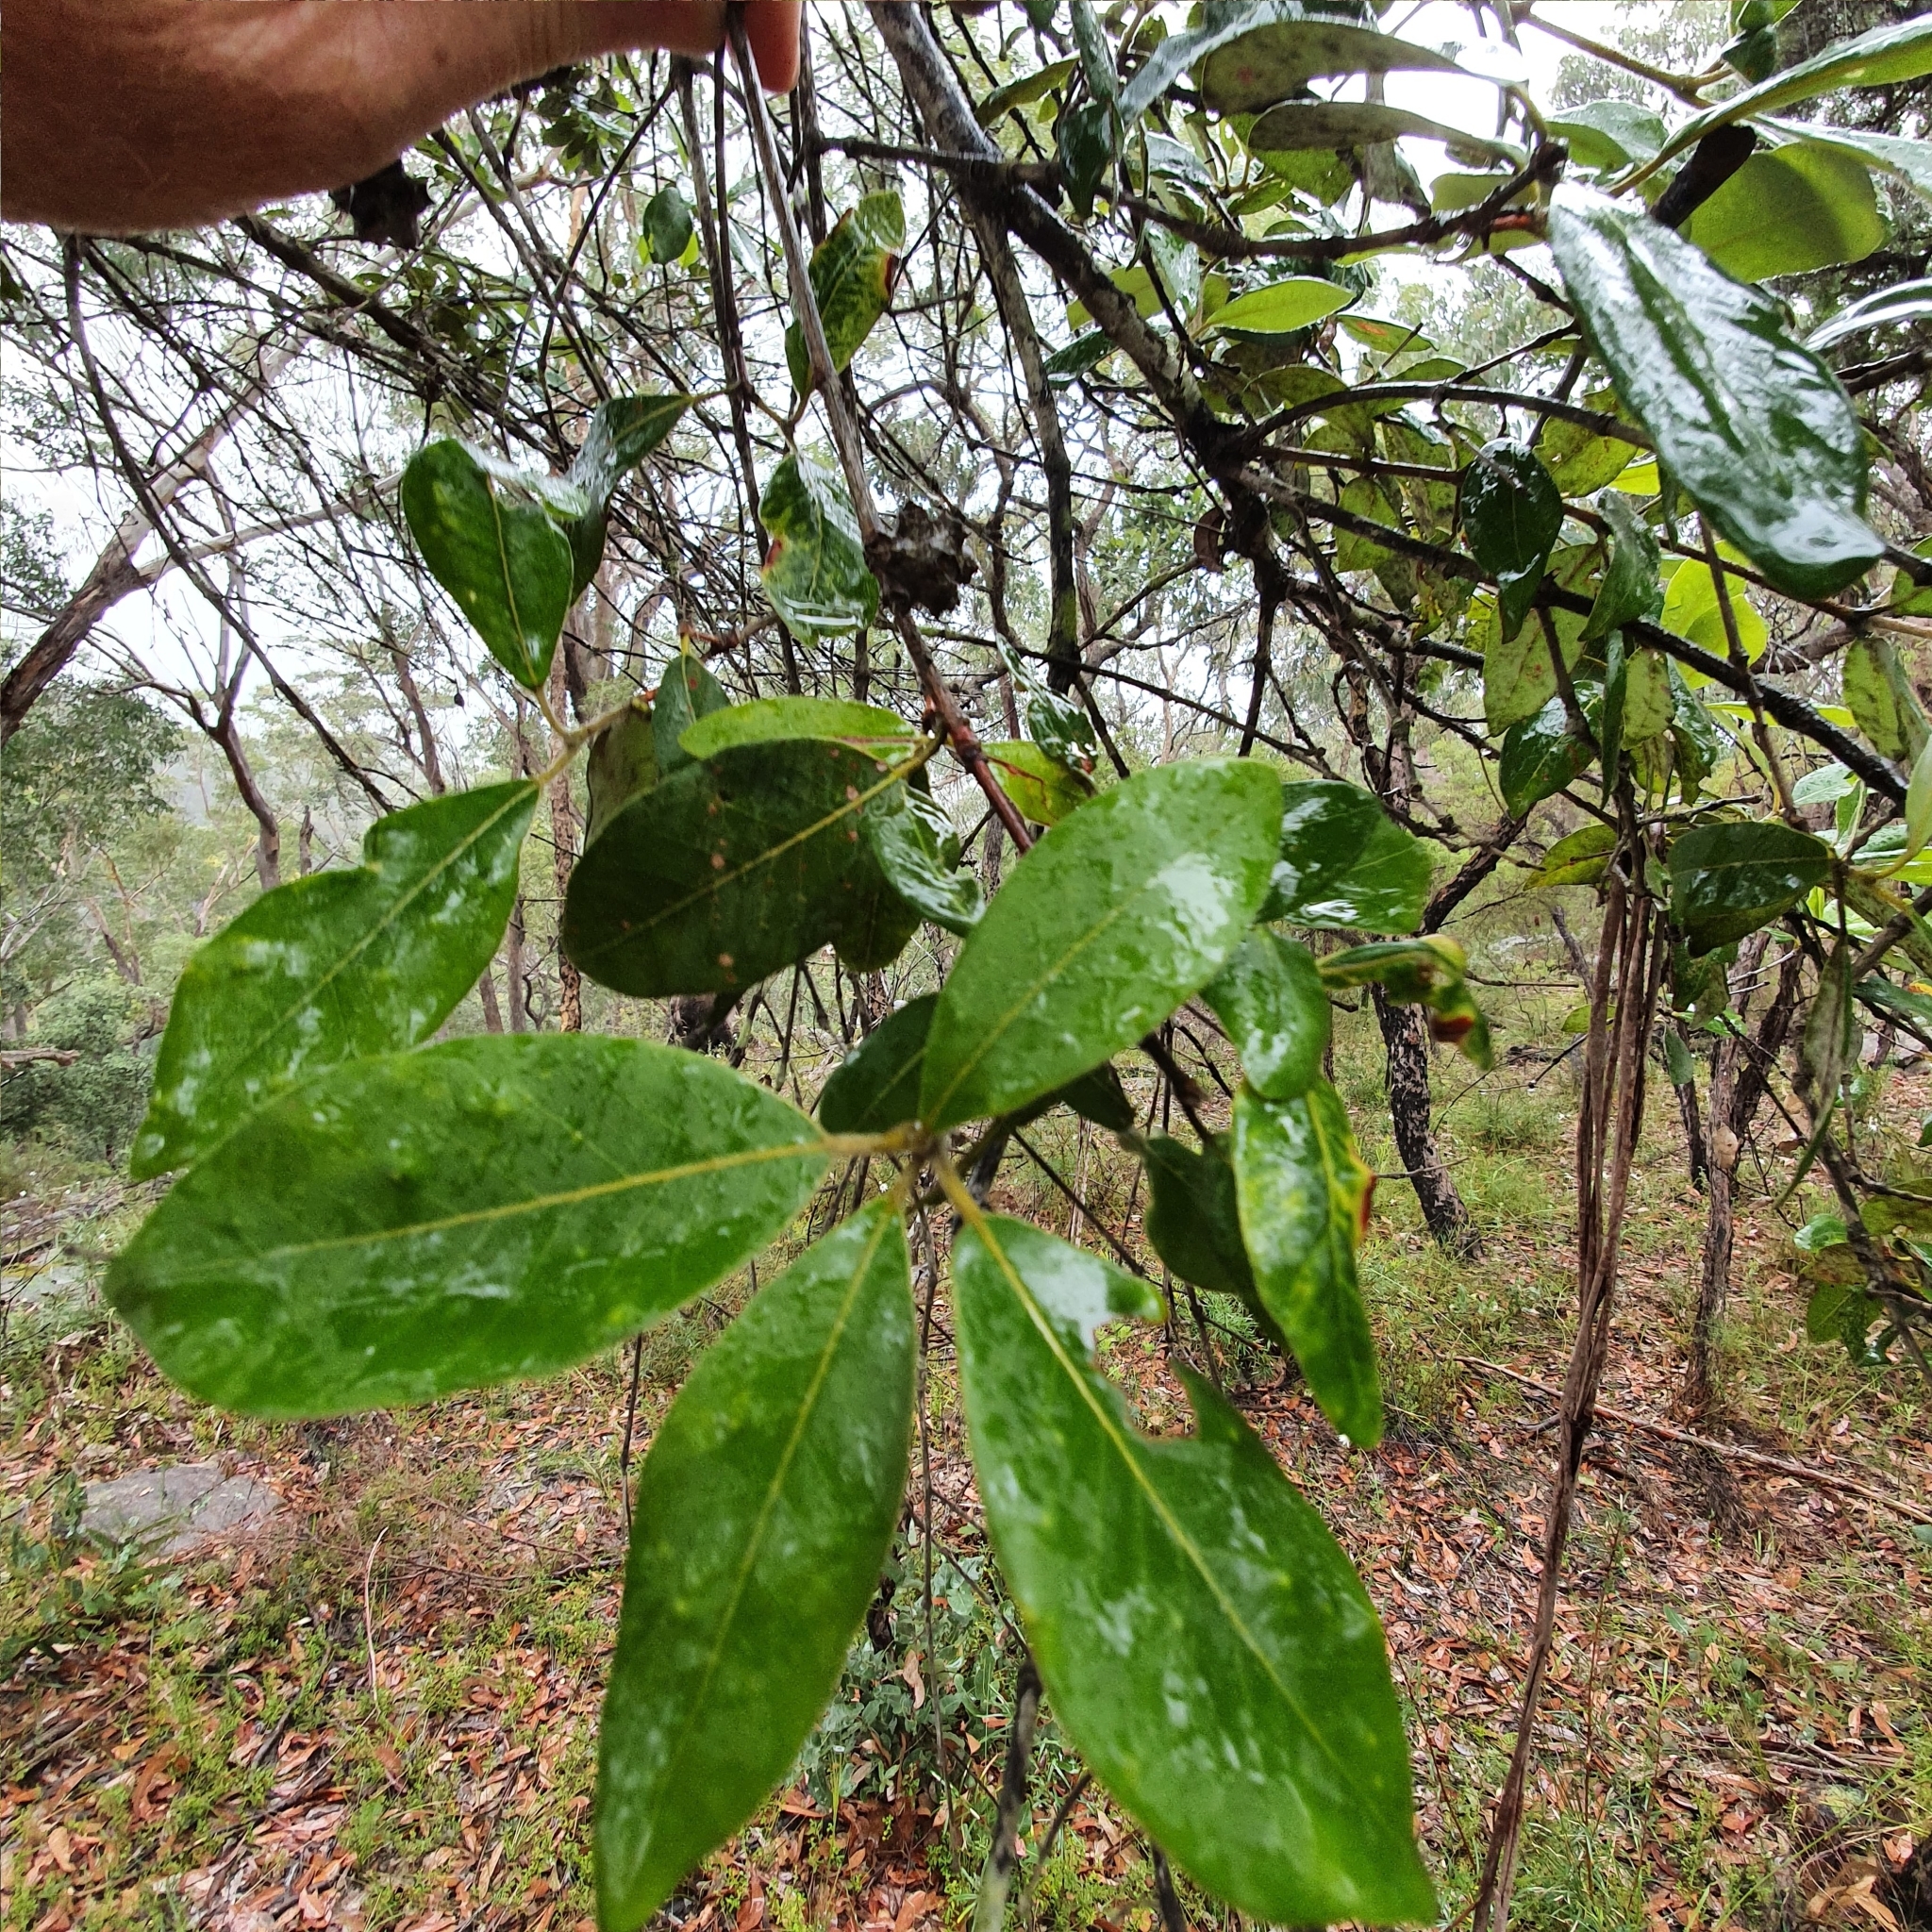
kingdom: Plantae
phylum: Tracheophyta
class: Magnoliopsida
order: Myrtales
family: Myrtaceae
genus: Syncarpia
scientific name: Syncarpia glomulifera
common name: Turpentine tree
